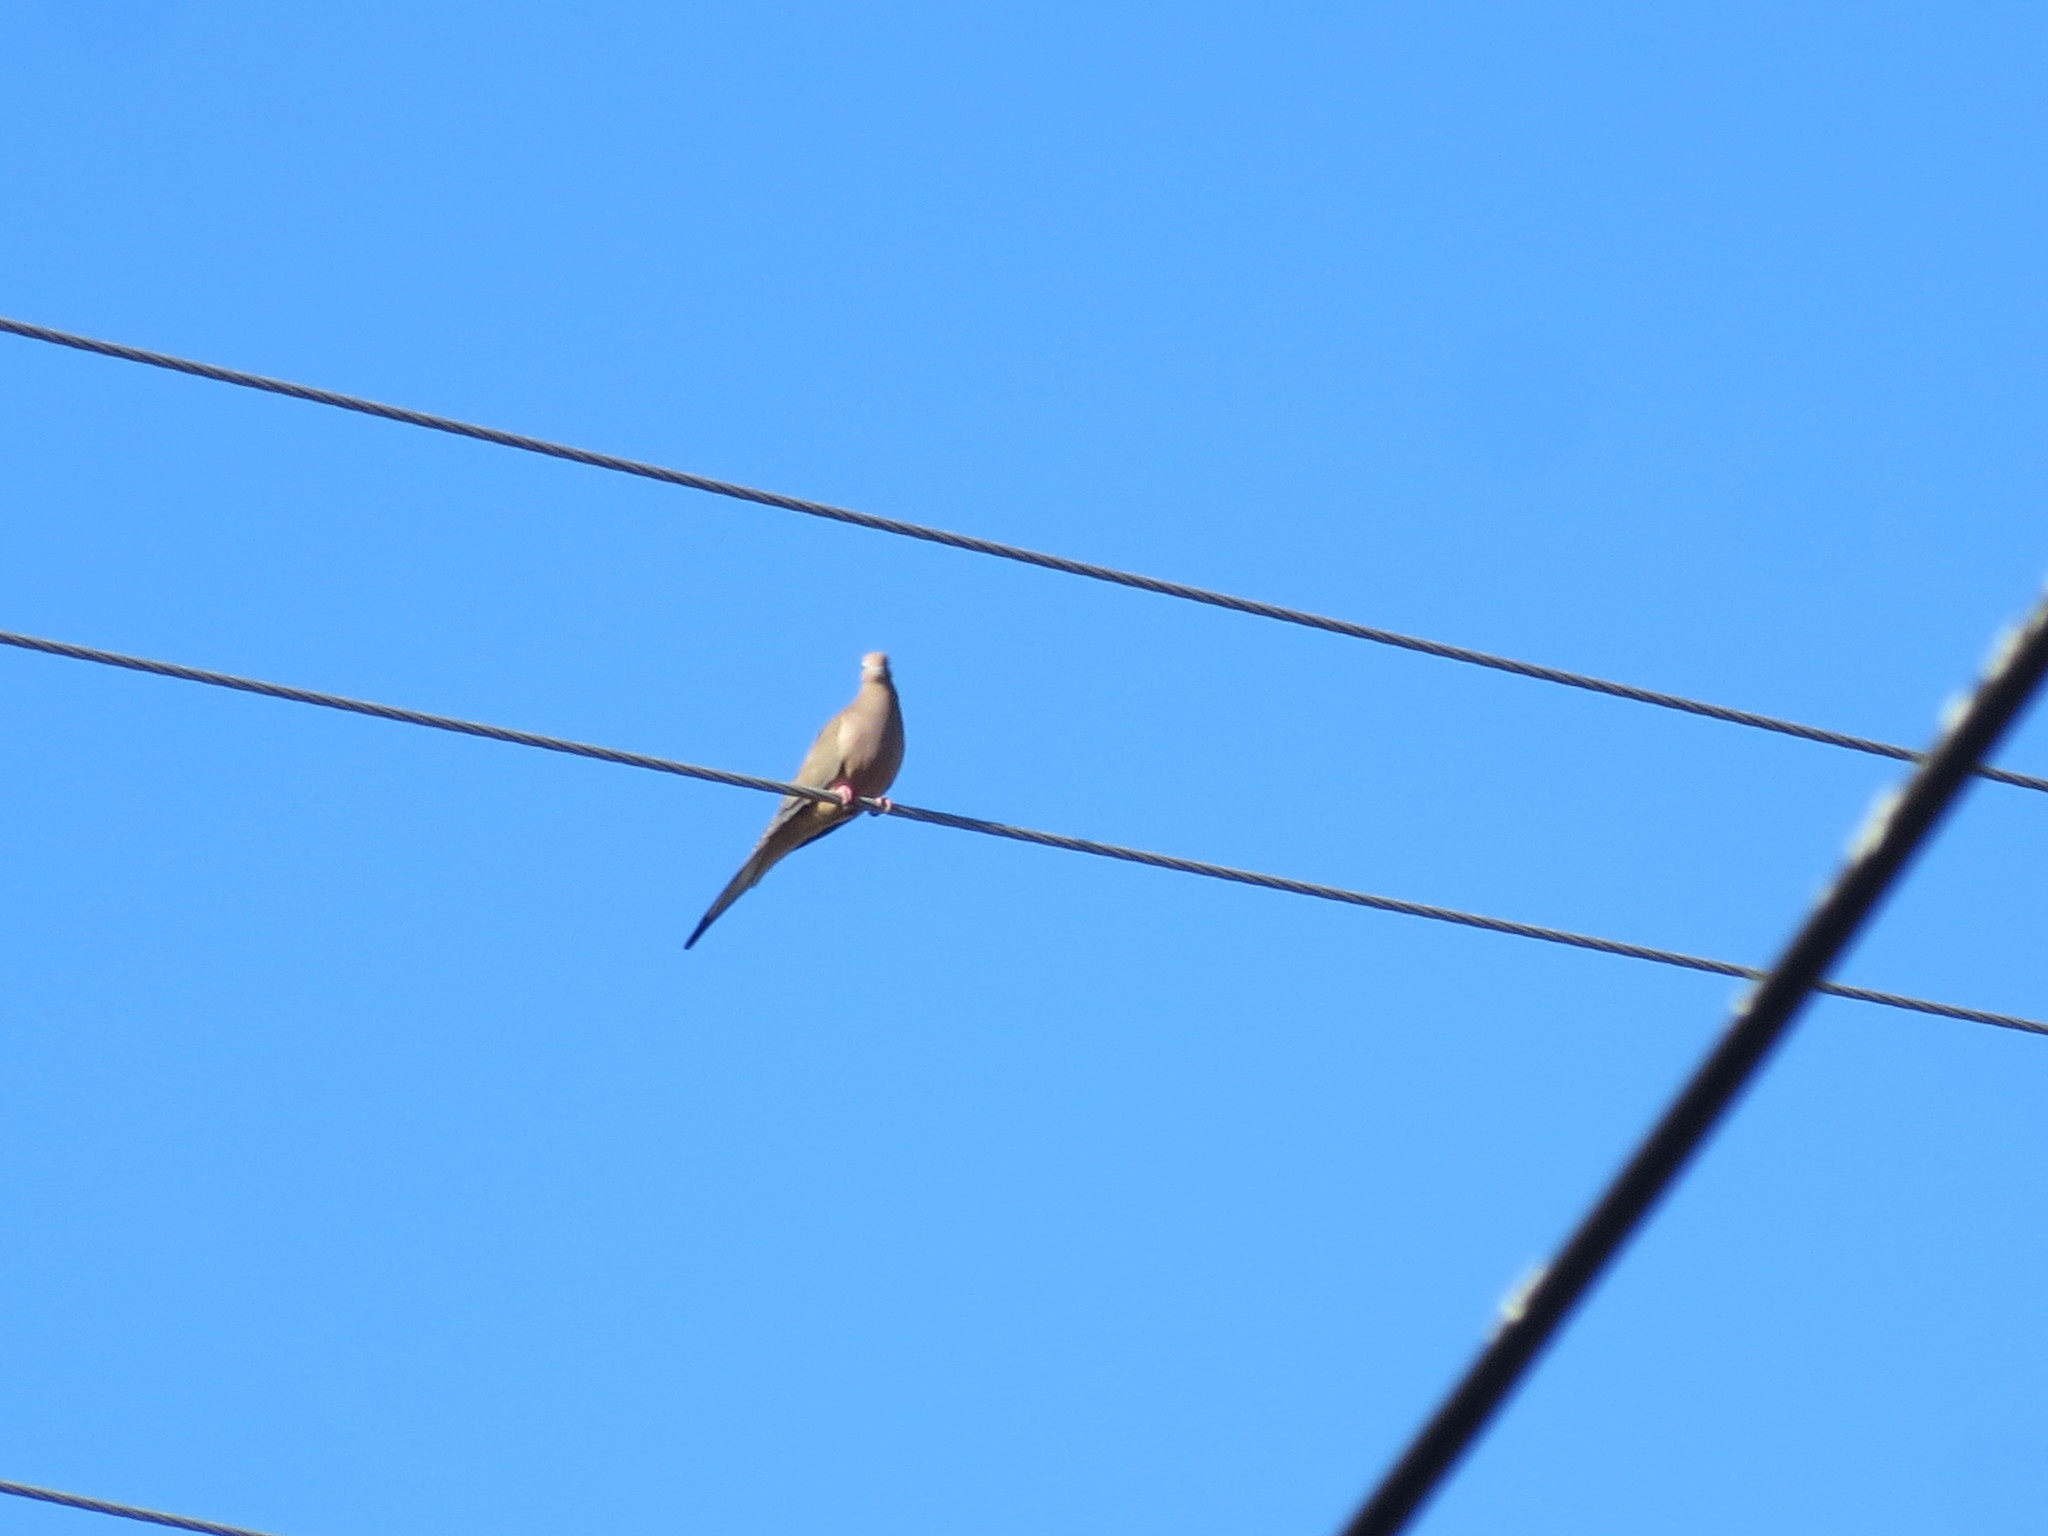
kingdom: Animalia
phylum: Chordata
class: Aves
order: Columbiformes
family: Columbidae
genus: Zenaida
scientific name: Zenaida macroura
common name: Mourning dove
